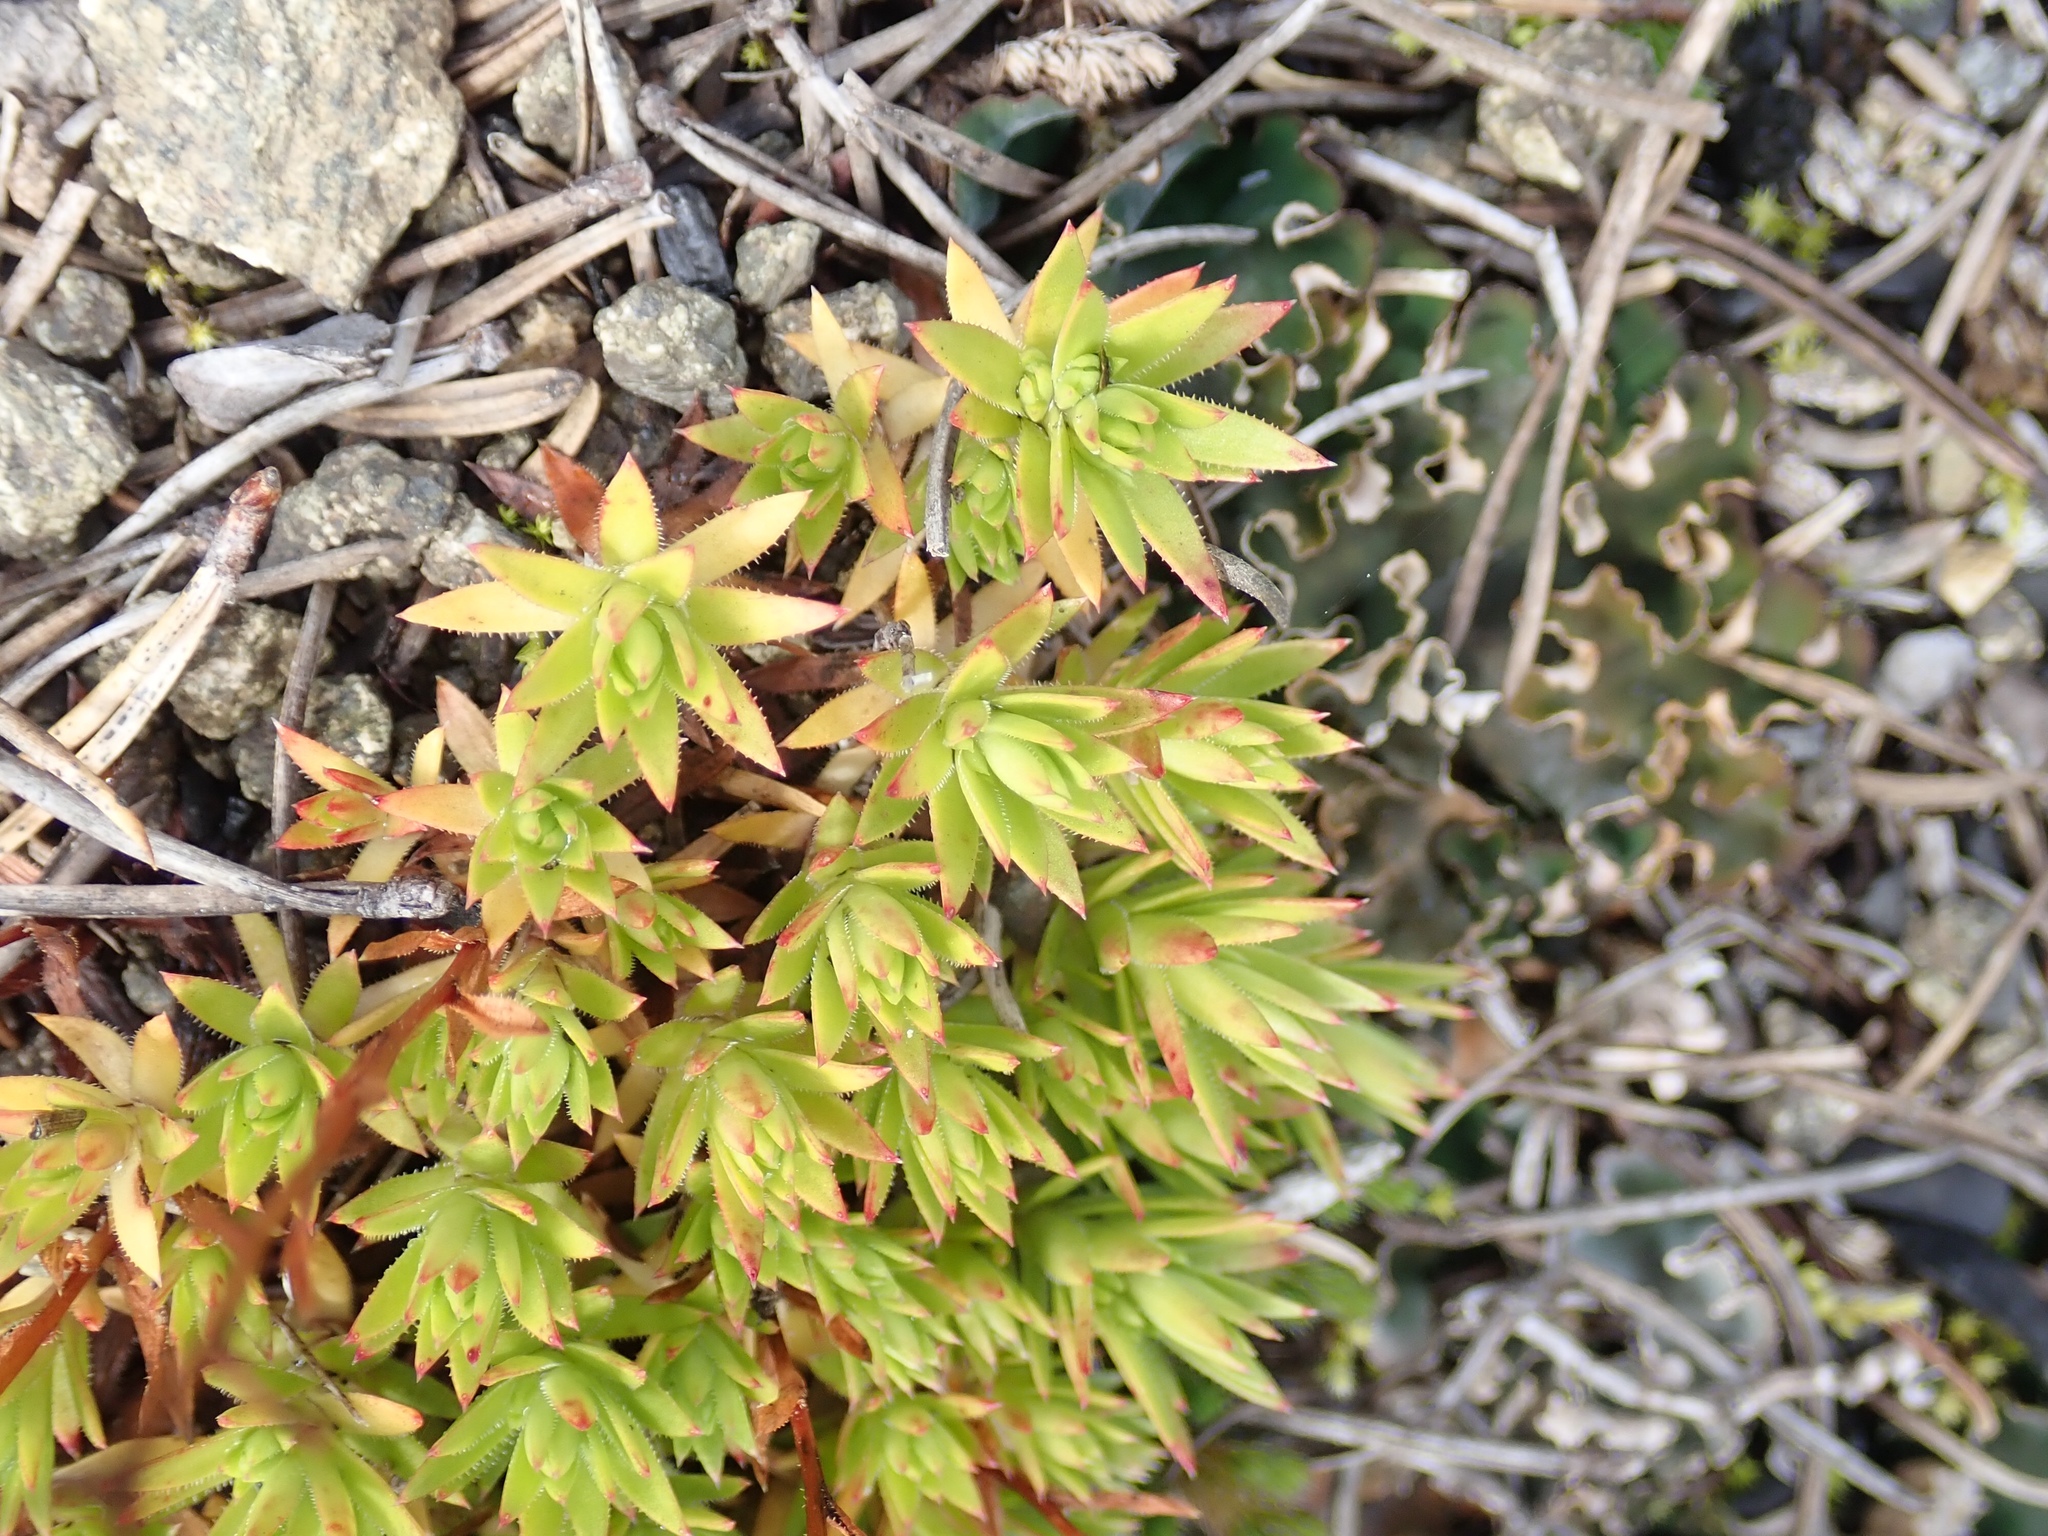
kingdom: Plantae
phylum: Tracheophyta
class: Magnoliopsida
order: Saxifragales
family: Saxifragaceae
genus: Saxifraga
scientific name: Saxifraga bronchialis
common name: Matted saxifrage
